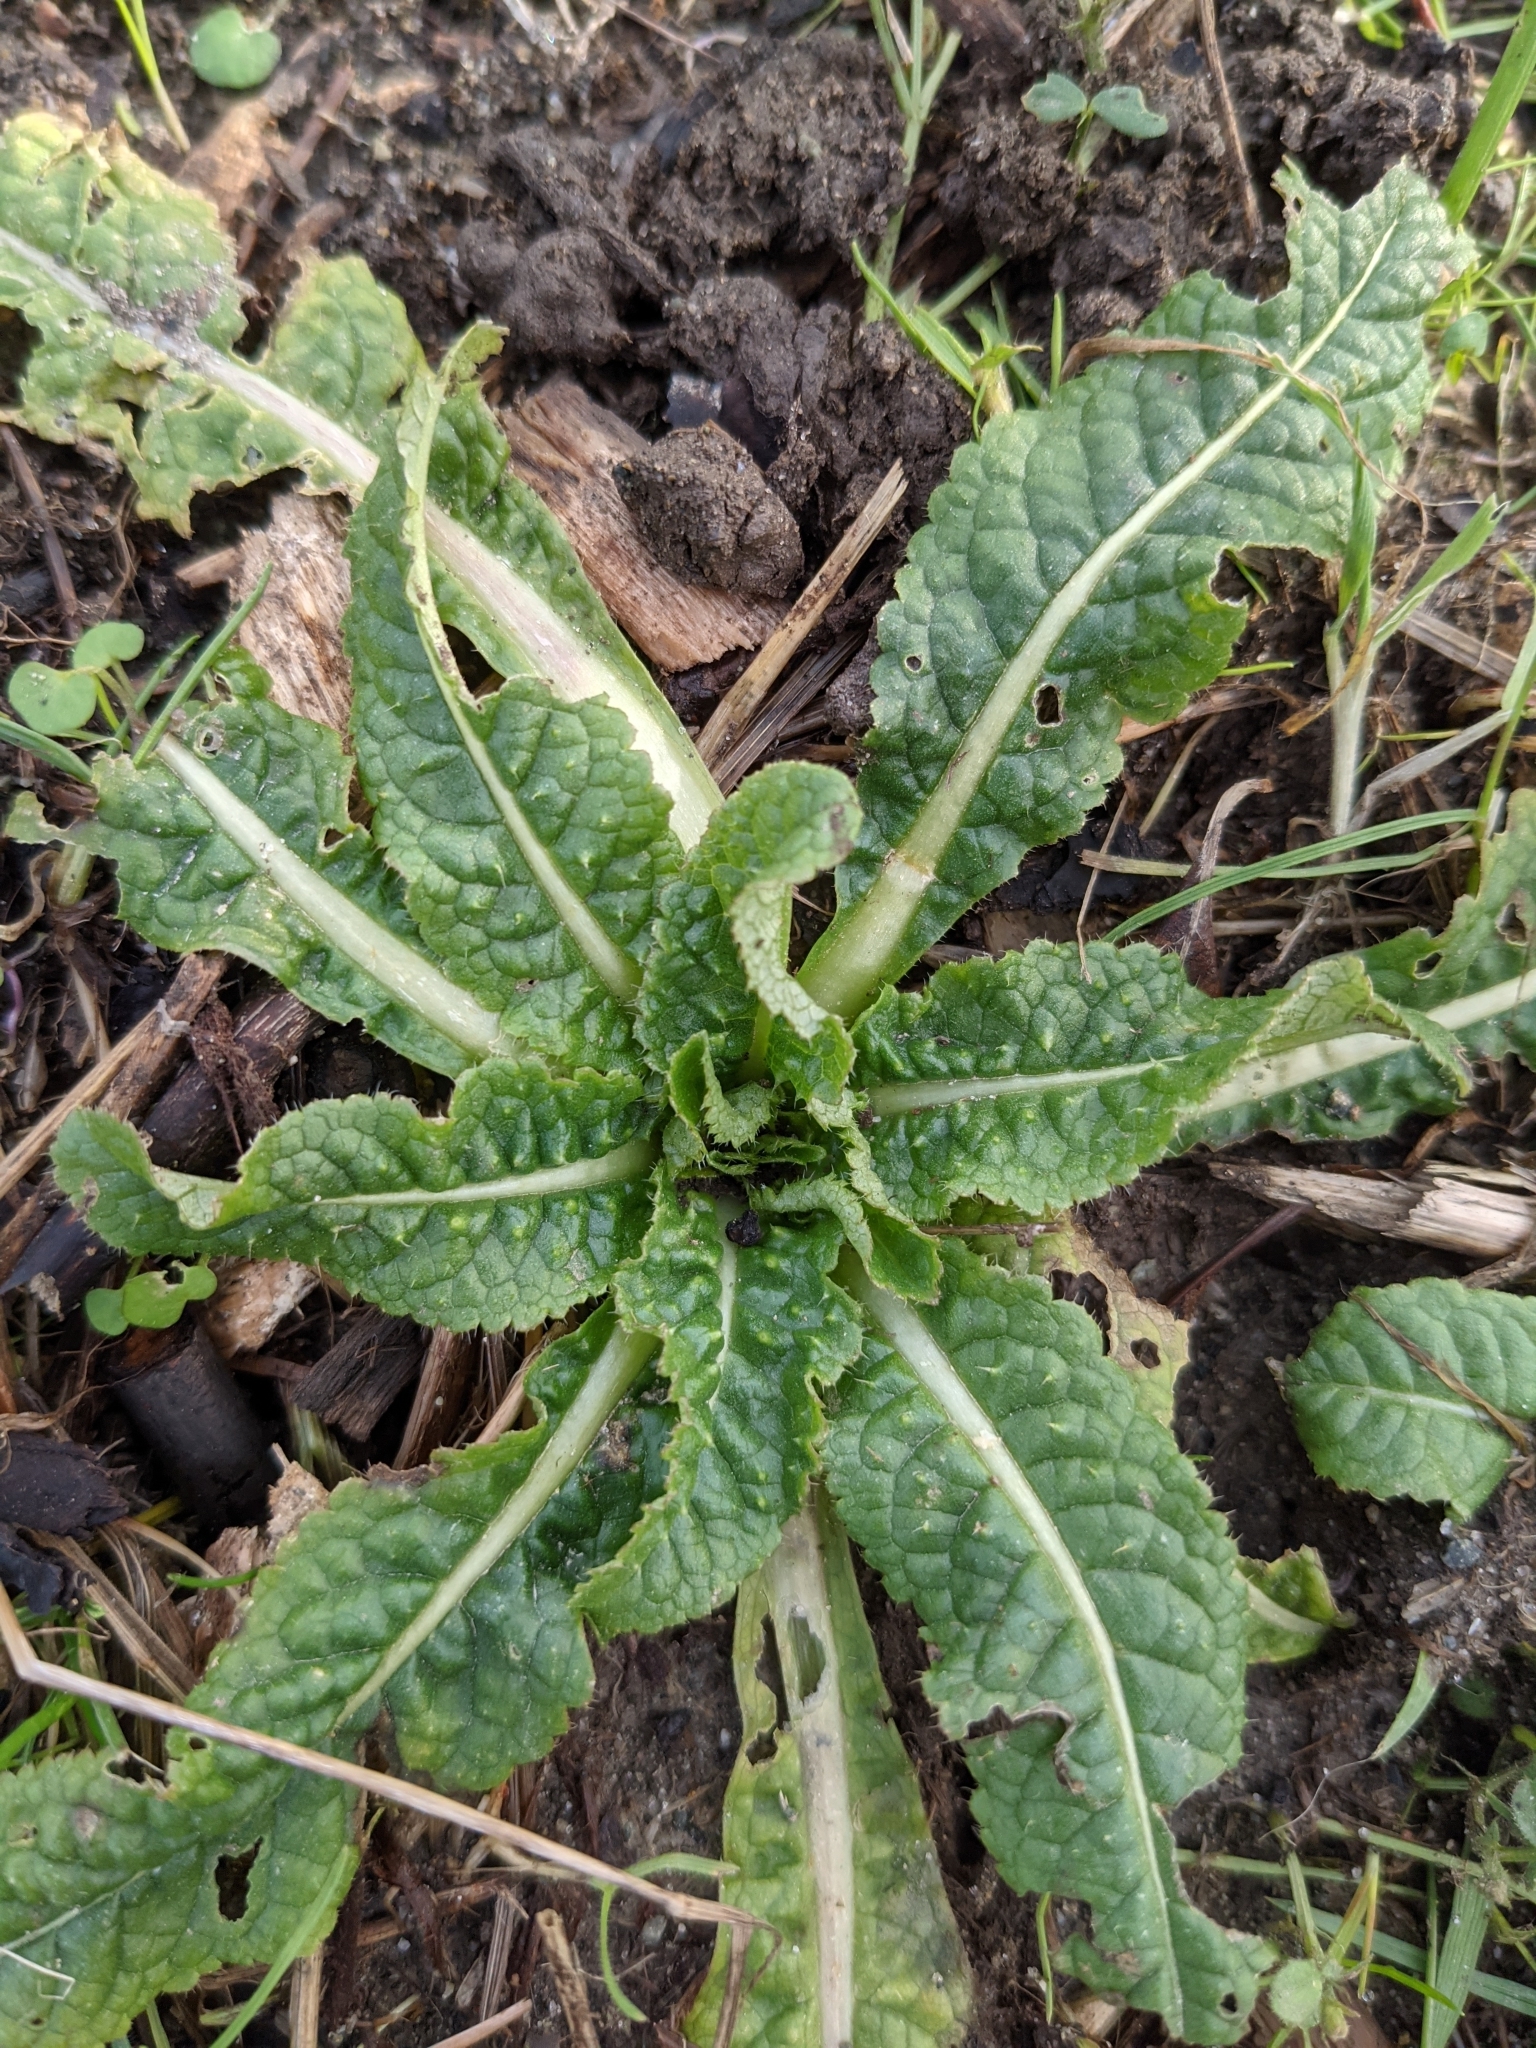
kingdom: Plantae
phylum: Tracheophyta
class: Magnoliopsida
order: Dipsacales
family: Caprifoliaceae
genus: Dipsacus
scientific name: Dipsacus fullonum
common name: Teasel
